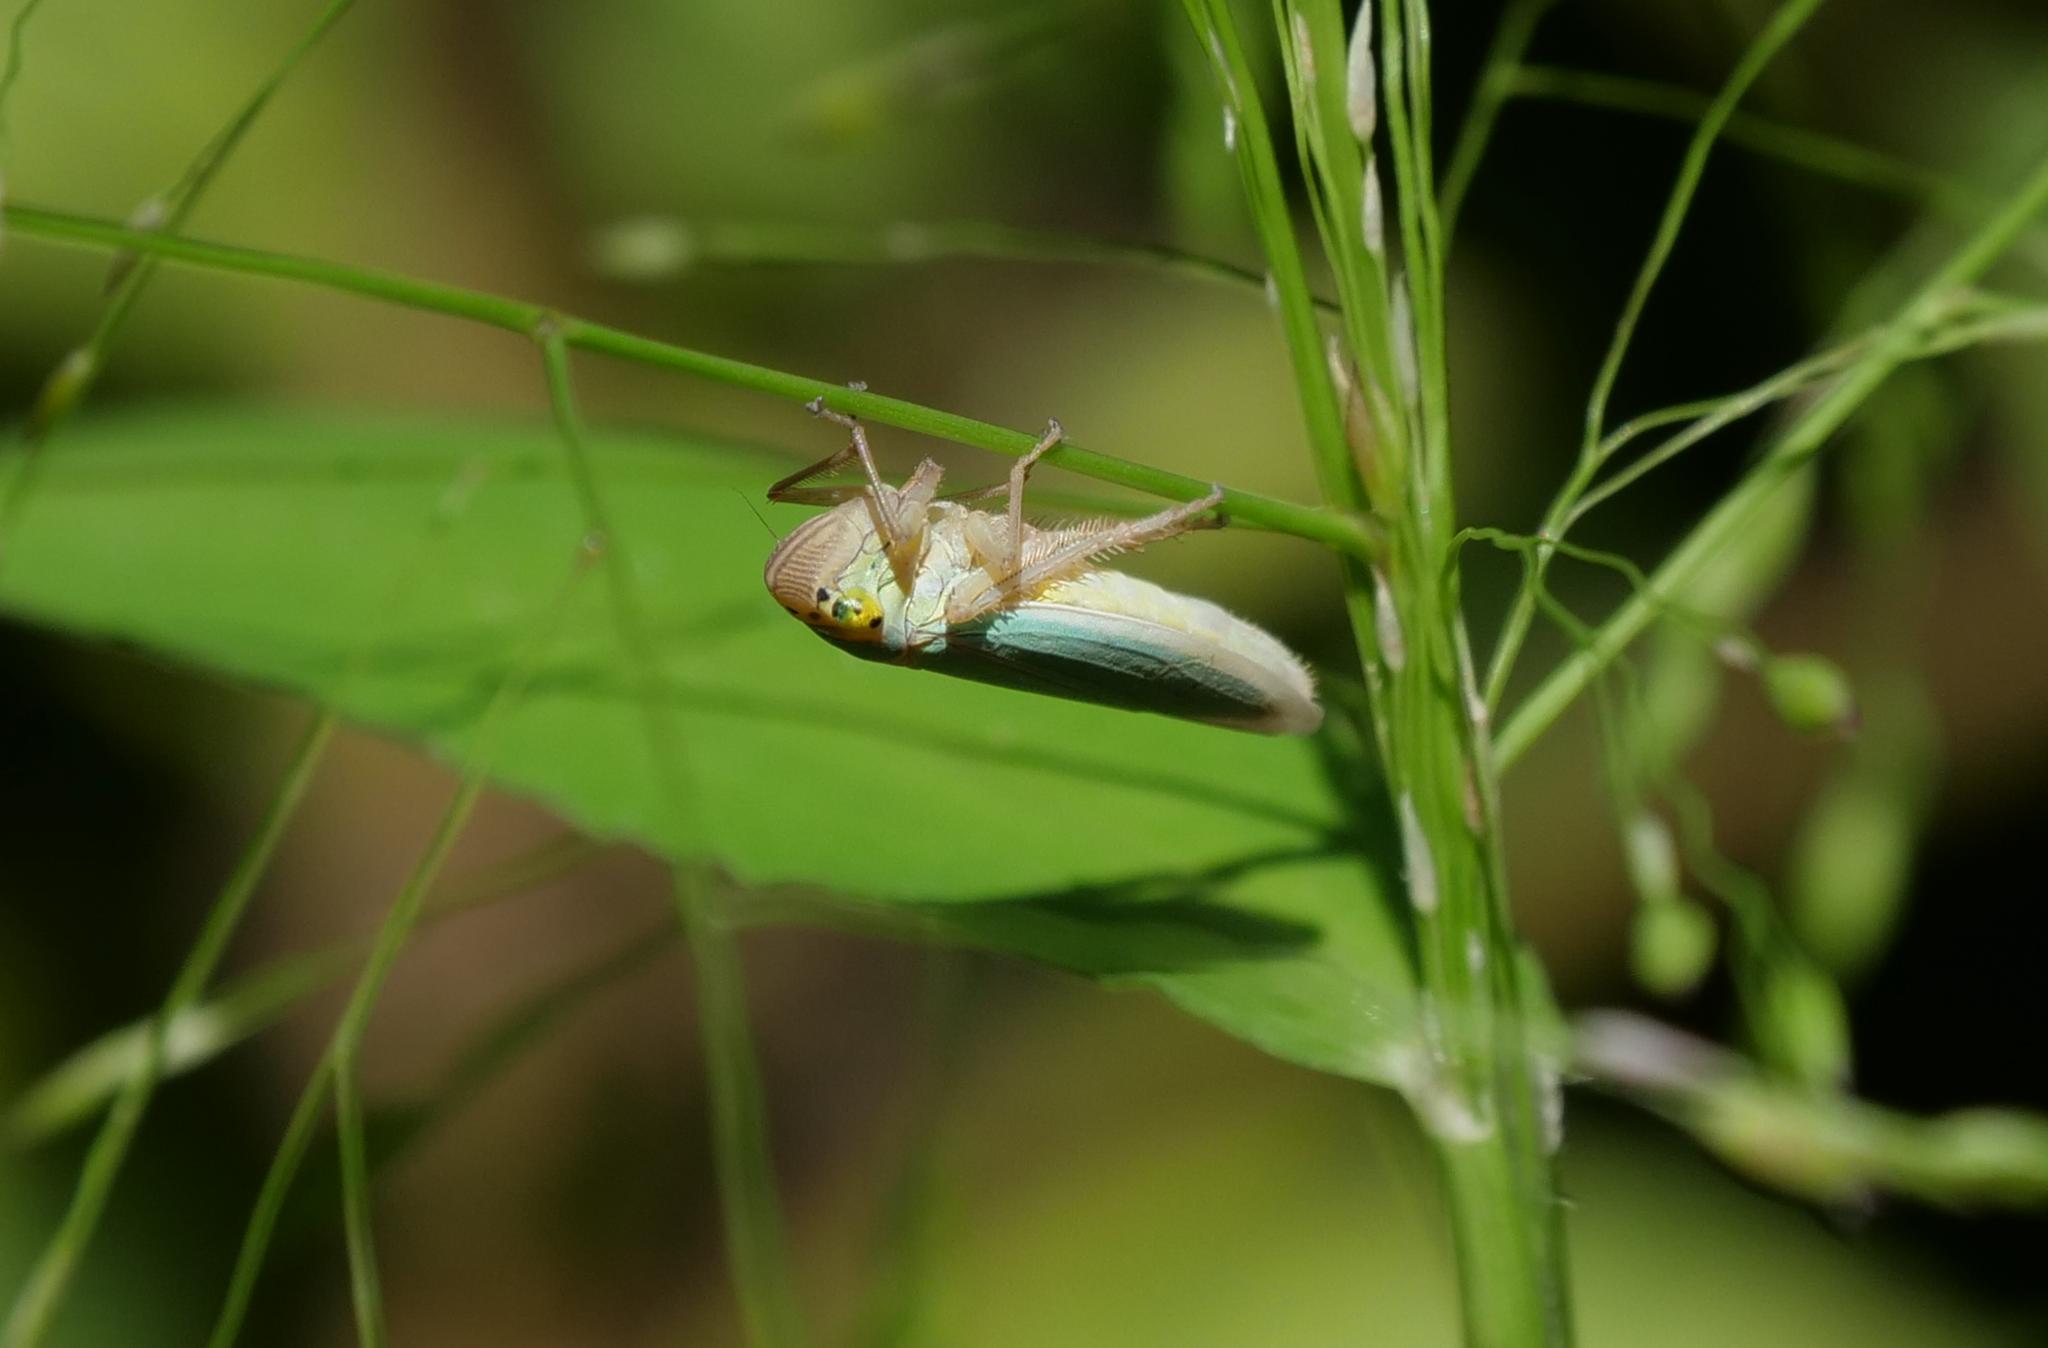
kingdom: Animalia
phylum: Arthropoda
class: Insecta
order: Hemiptera
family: Cicadellidae
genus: Cicadella
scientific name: Cicadella viridis
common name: Leafhopper
